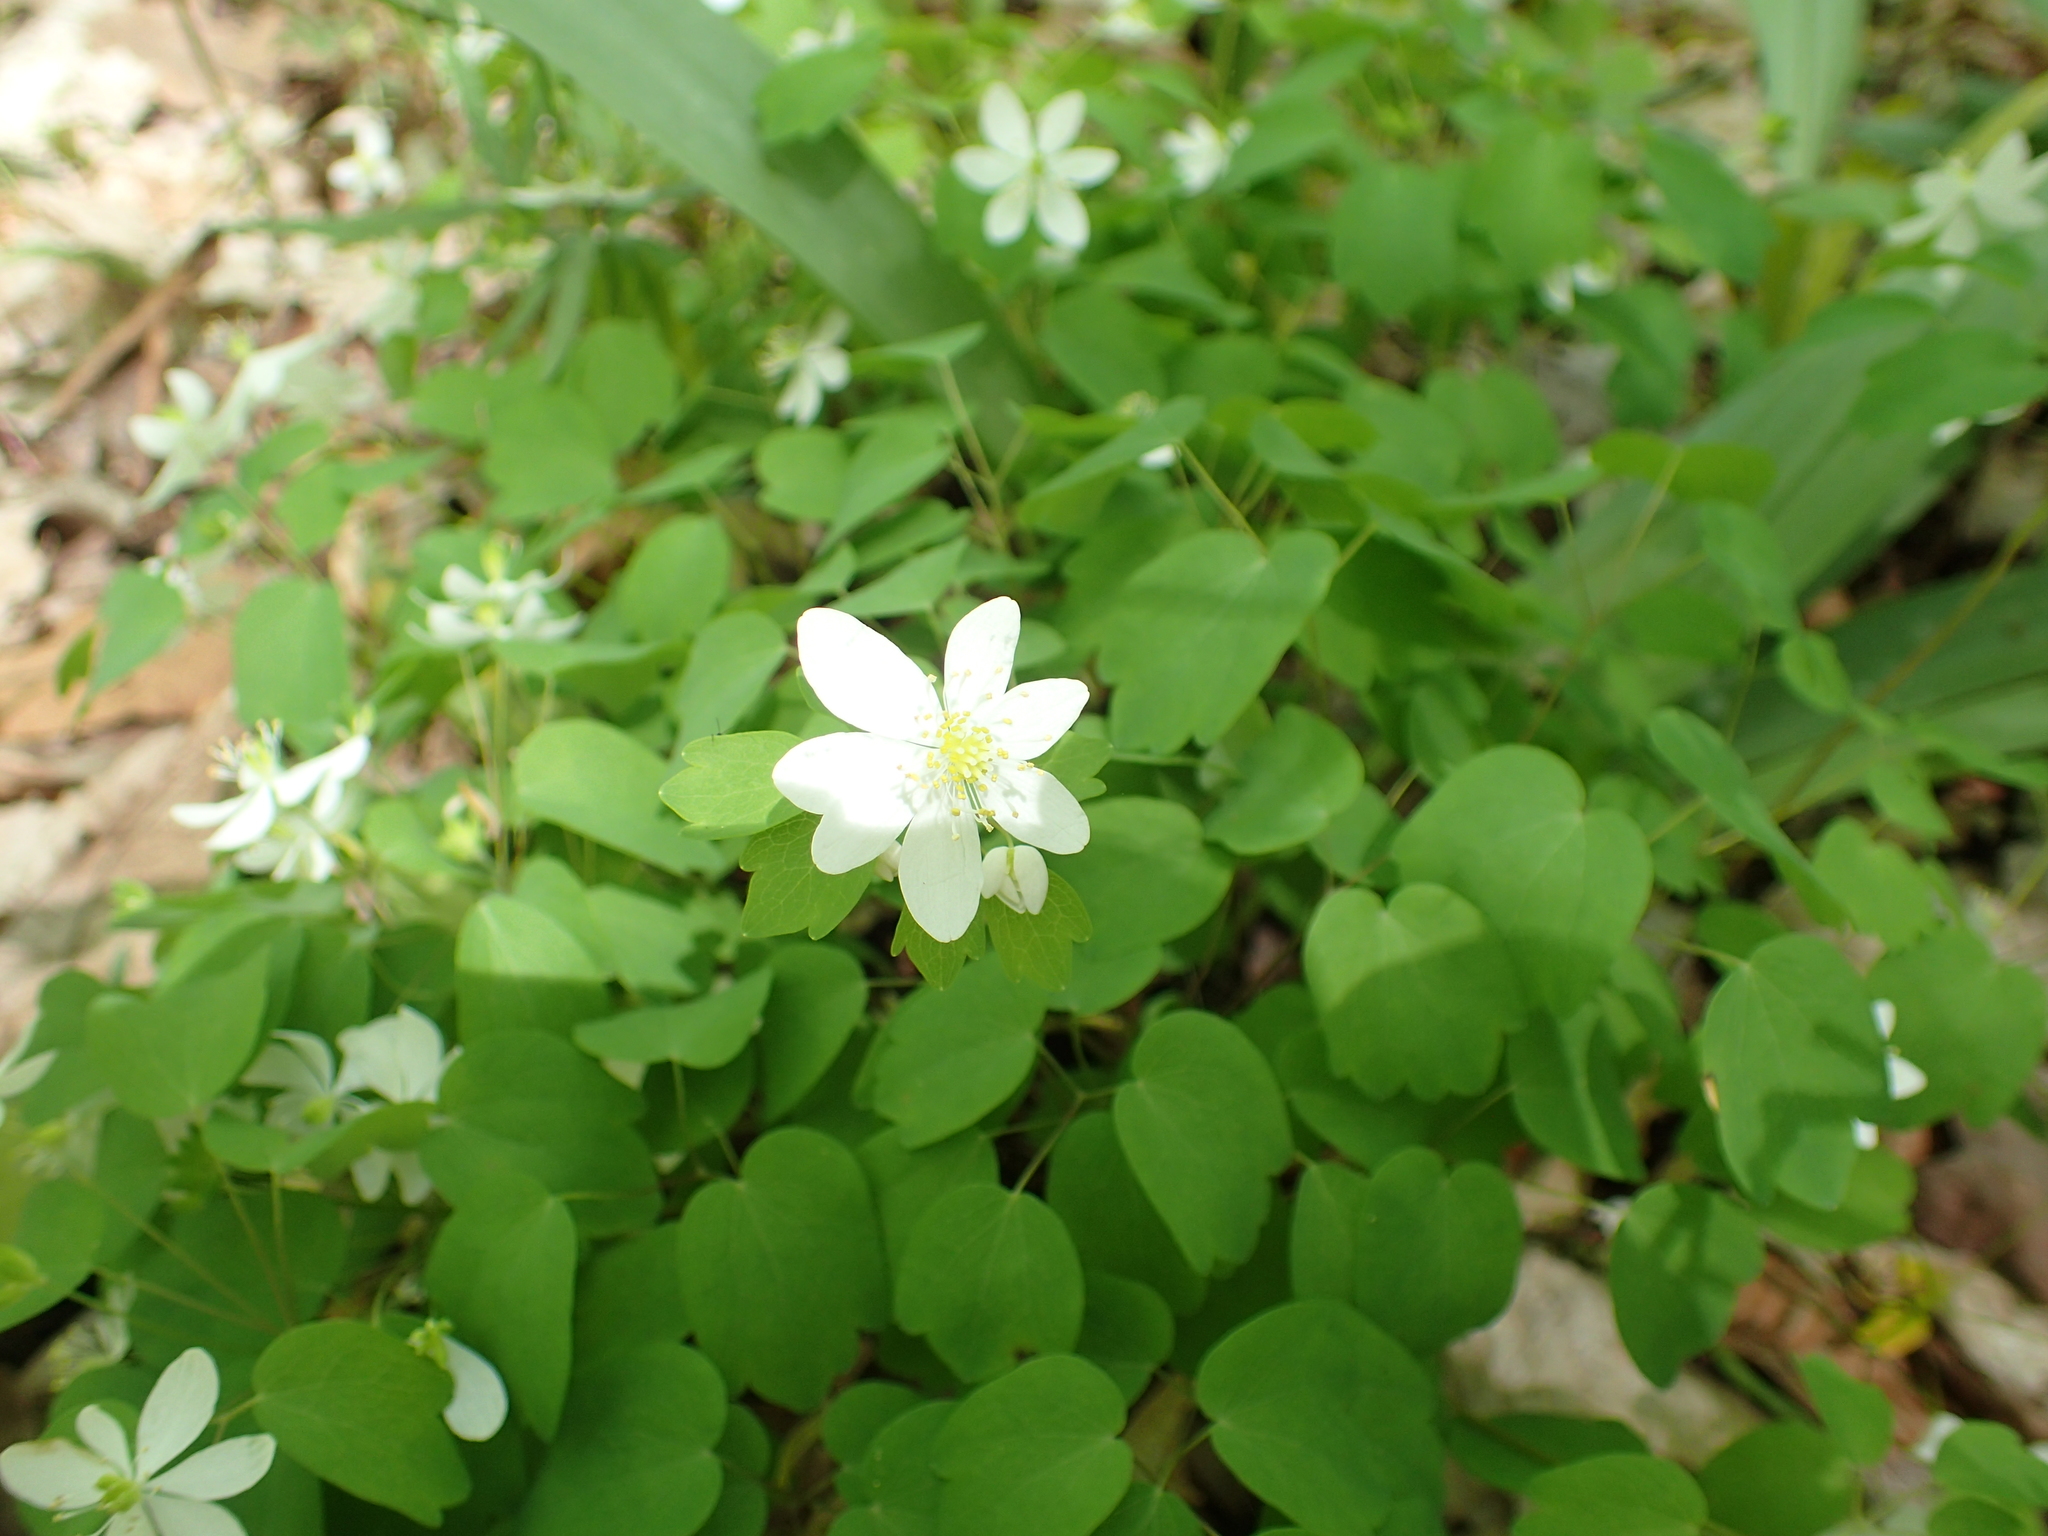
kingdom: Plantae
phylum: Tracheophyta
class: Magnoliopsida
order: Ranunculales
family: Ranunculaceae
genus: Thalictrum
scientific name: Thalictrum thalictroides
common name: Rue-anemone
